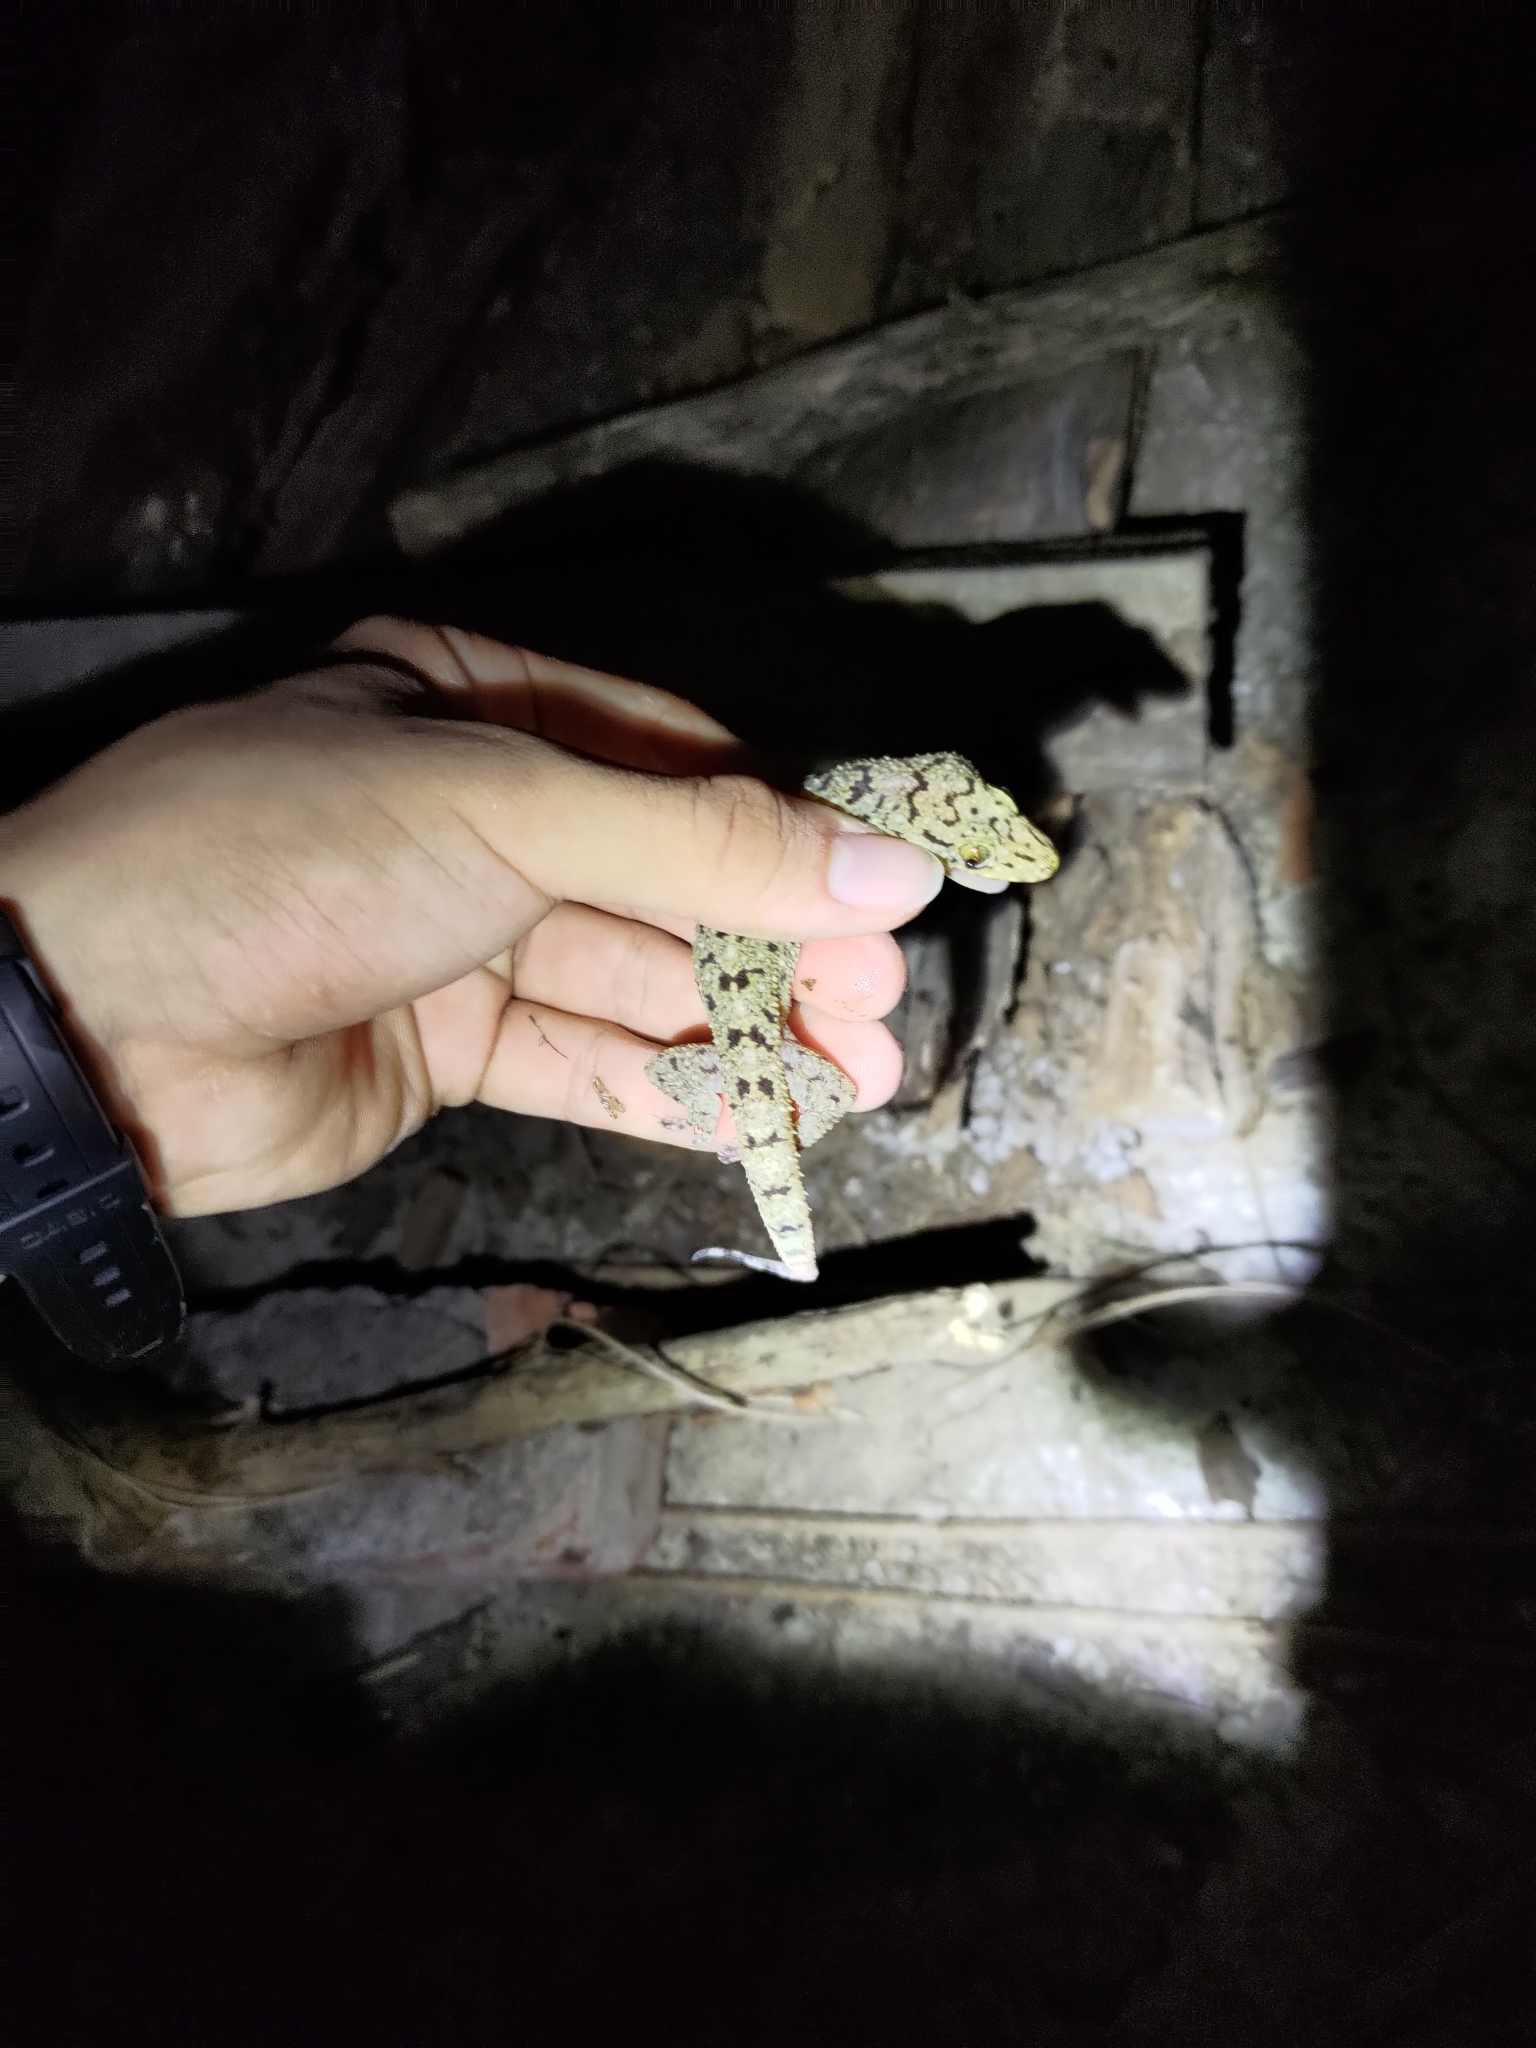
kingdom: Animalia
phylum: Chordata
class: Squamata
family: Gekkonidae
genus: Gekko
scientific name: Gekko monarchus
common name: Spotted house gecko
